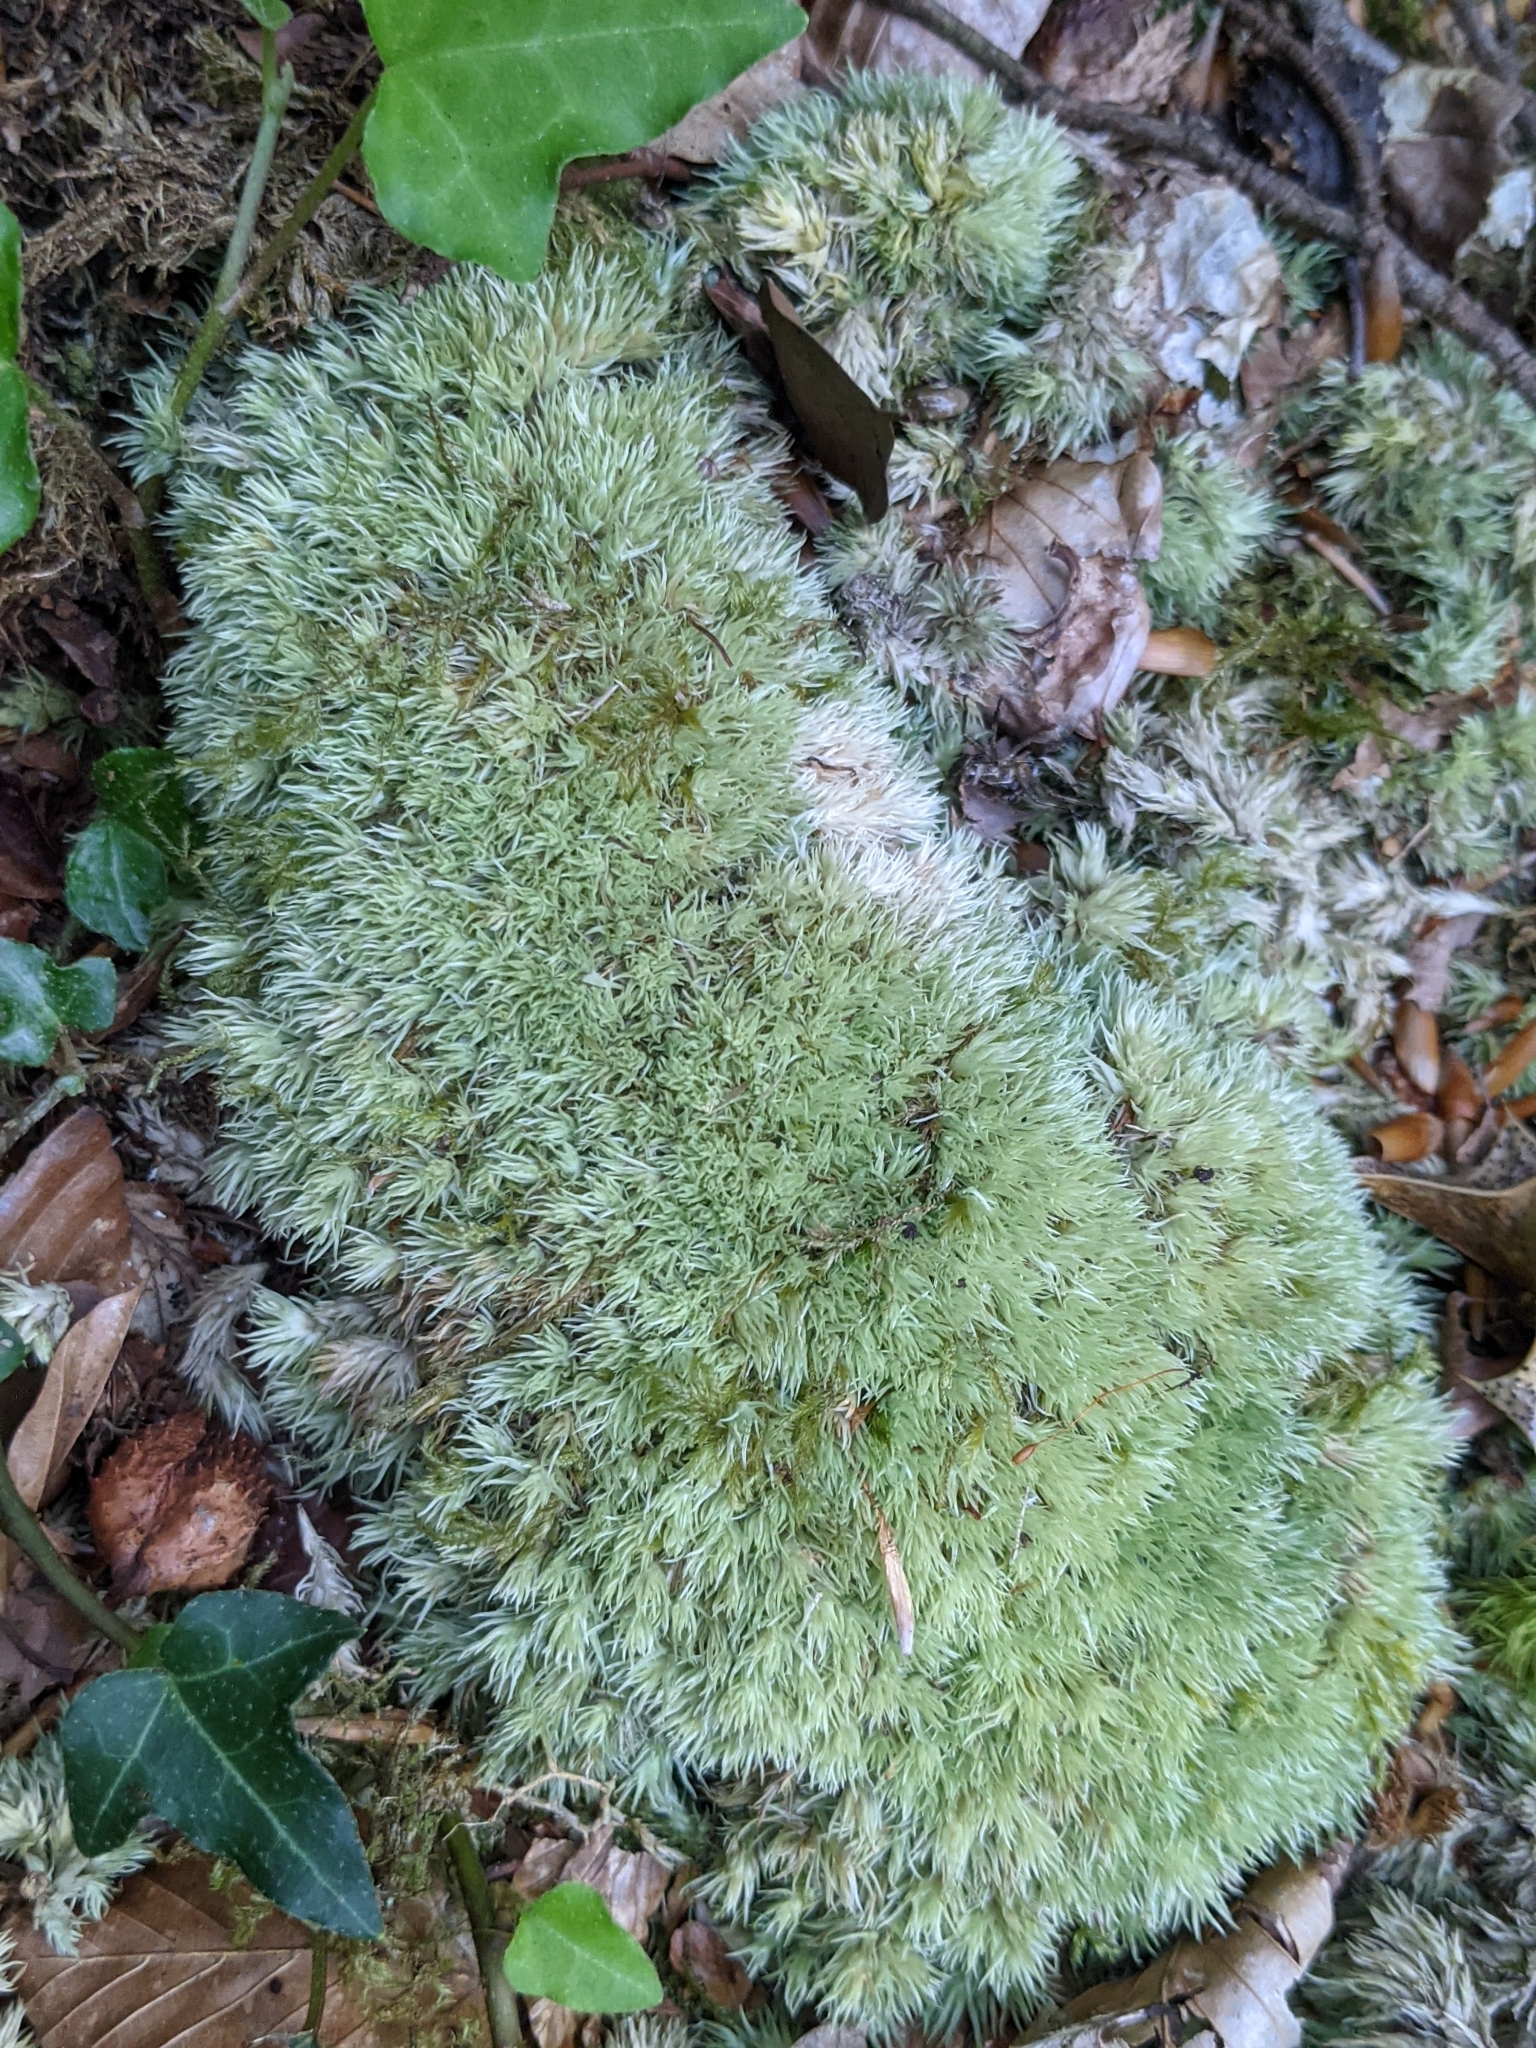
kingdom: Plantae
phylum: Bryophyta
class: Bryopsida
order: Dicranales
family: Leucobryaceae
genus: Leucobryum
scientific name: Leucobryum glaucum
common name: Large white-moss
